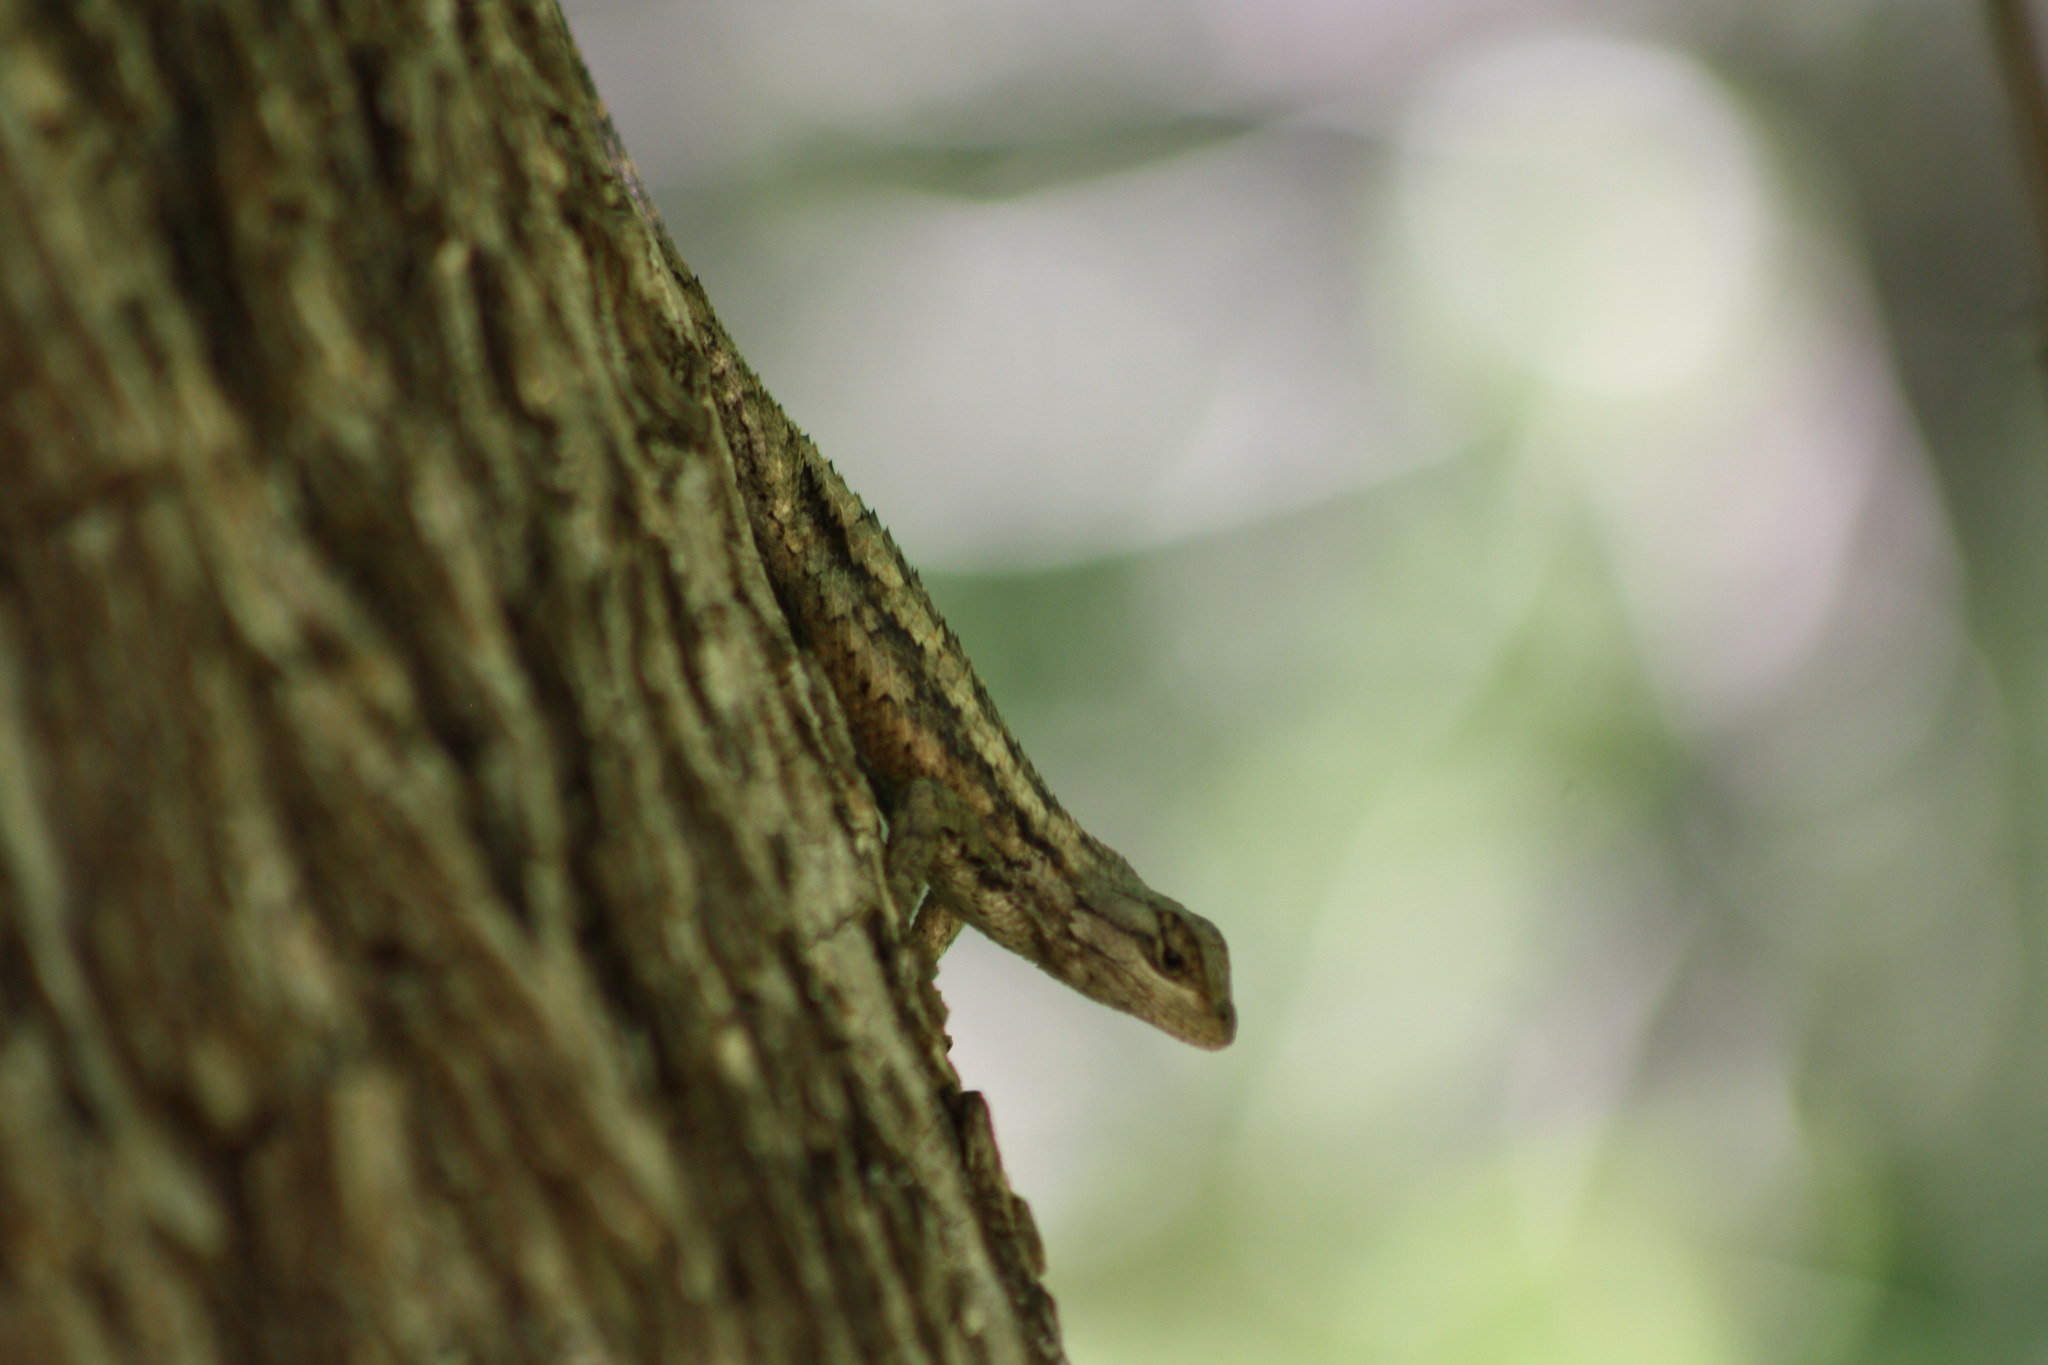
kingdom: Animalia
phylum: Chordata
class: Squamata
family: Phrynosomatidae
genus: Sceloporus
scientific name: Sceloporus olivaceus
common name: Texas spiny lizard
